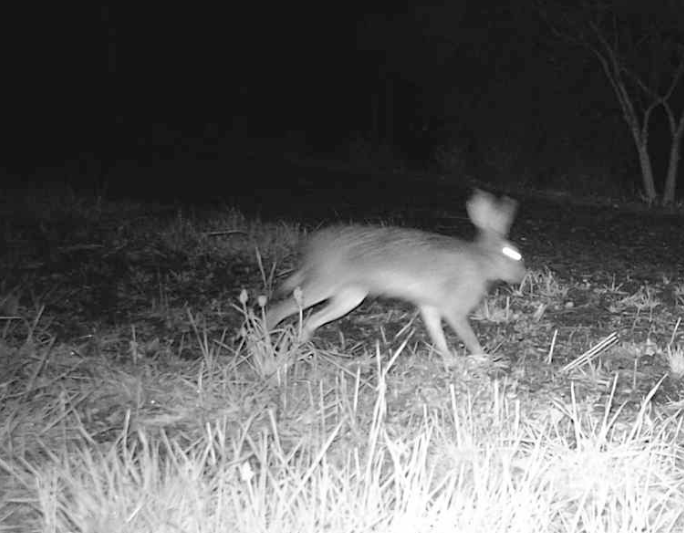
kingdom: Animalia
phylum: Chordata
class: Mammalia
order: Lagomorpha
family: Leporidae
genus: Lepus
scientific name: Lepus europaeus
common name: European hare
